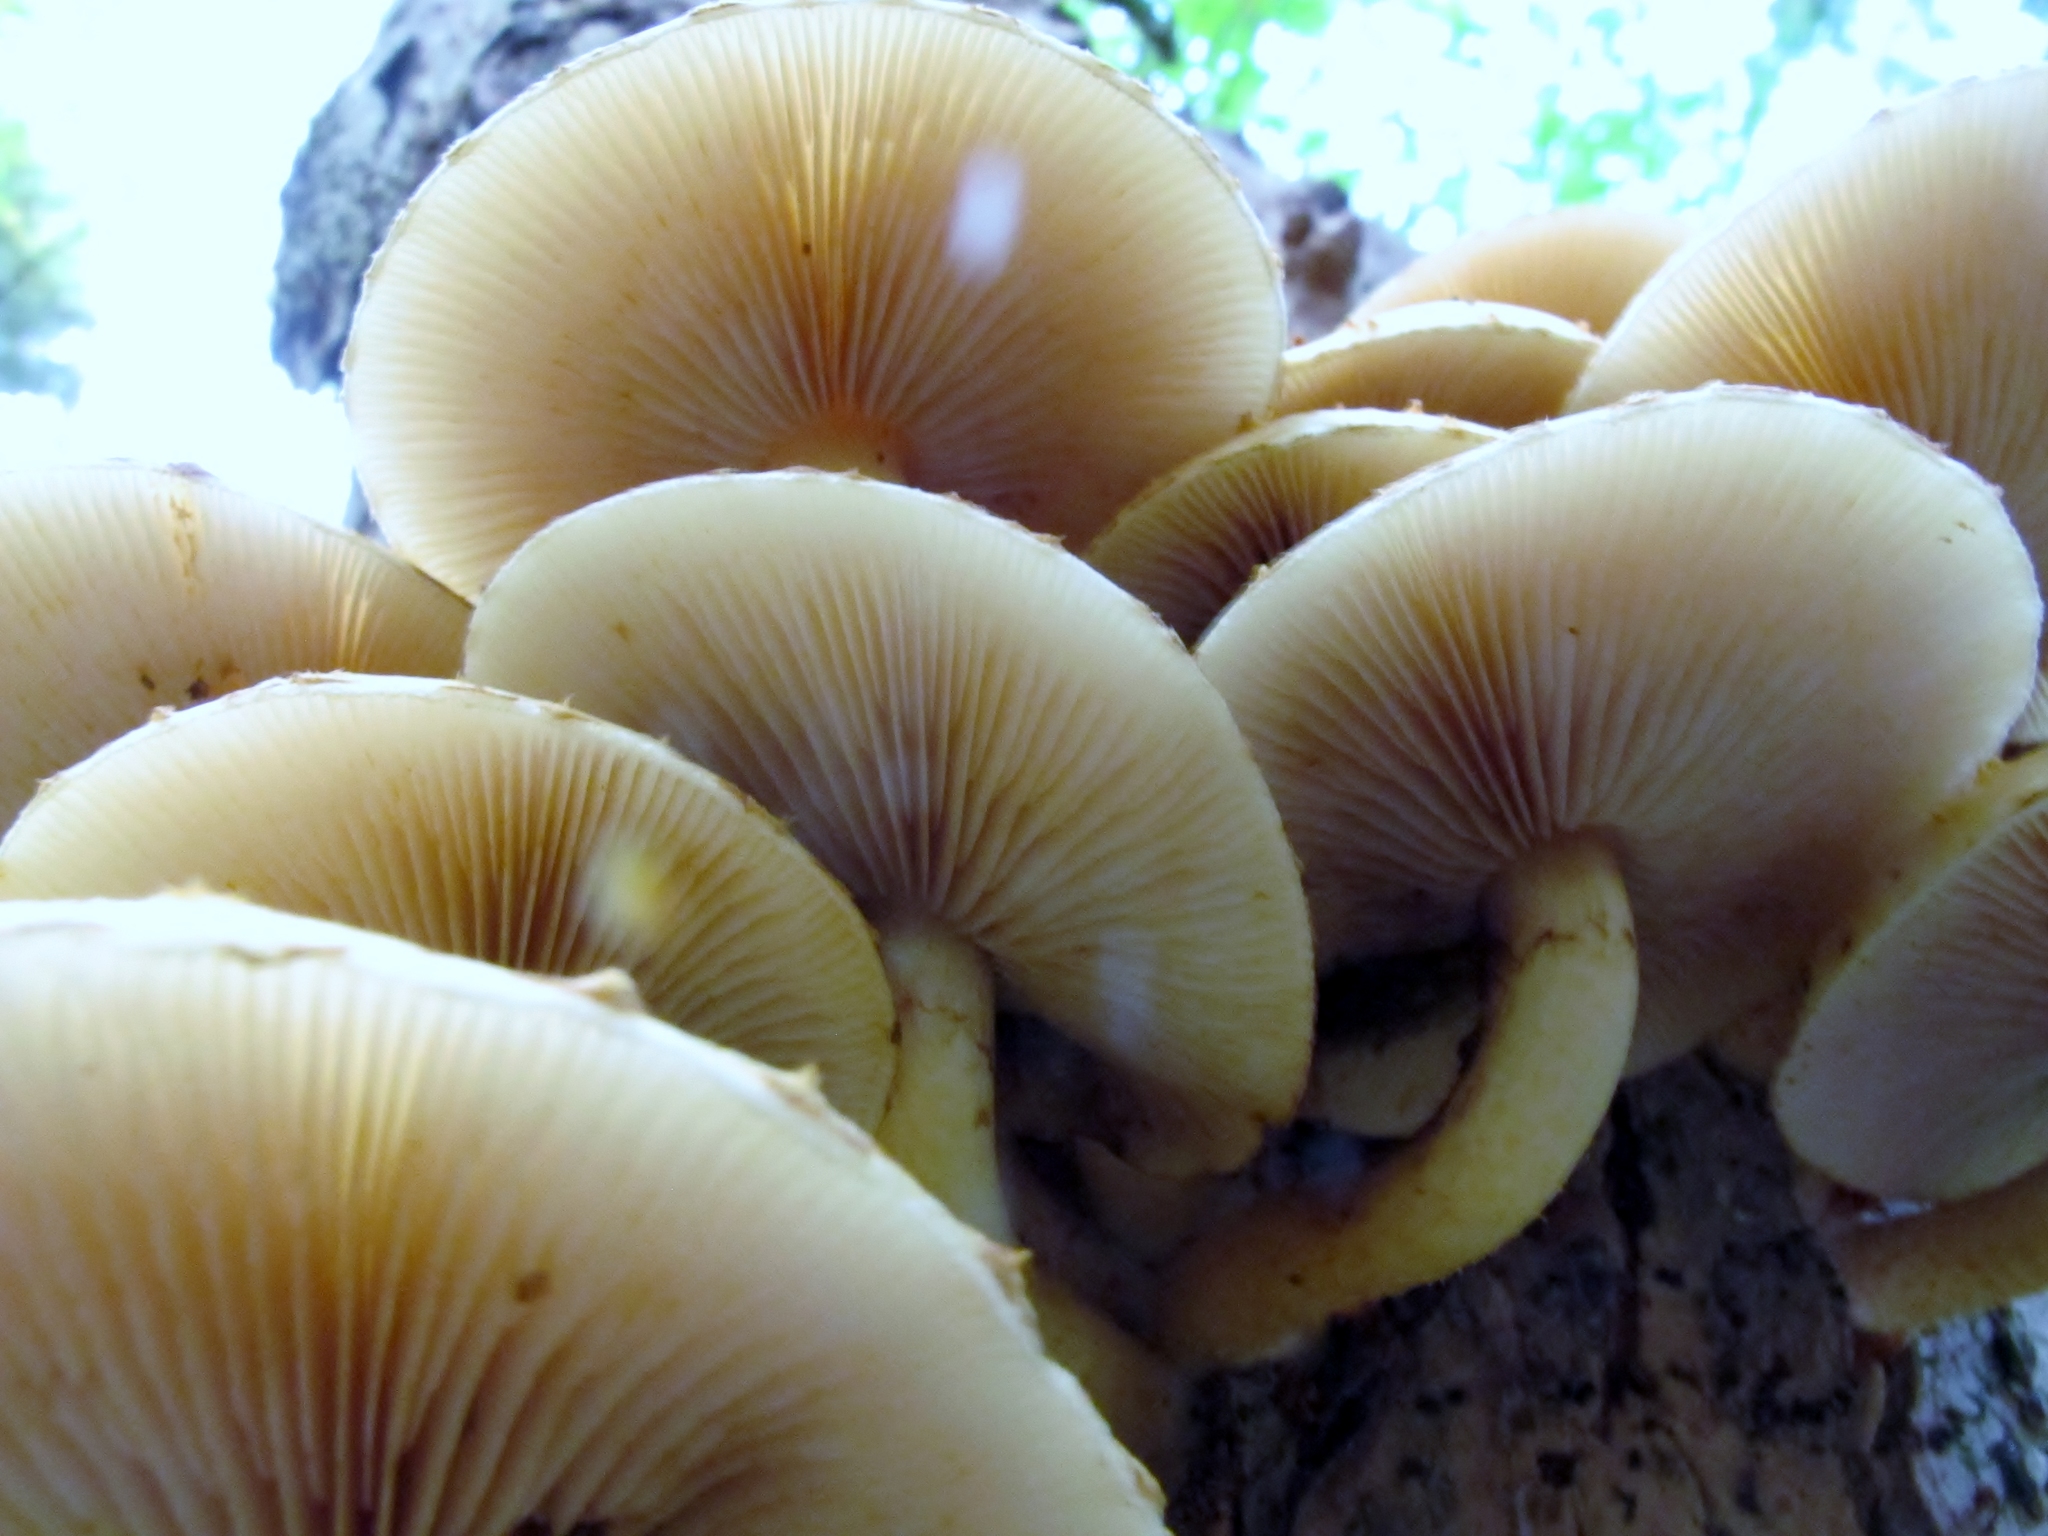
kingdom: Fungi
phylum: Basidiomycota
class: Agaricomycetes
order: Agaricales
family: Strophariaceae
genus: Pholiota
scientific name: Pholiota aurivella
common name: Golden scalycap
